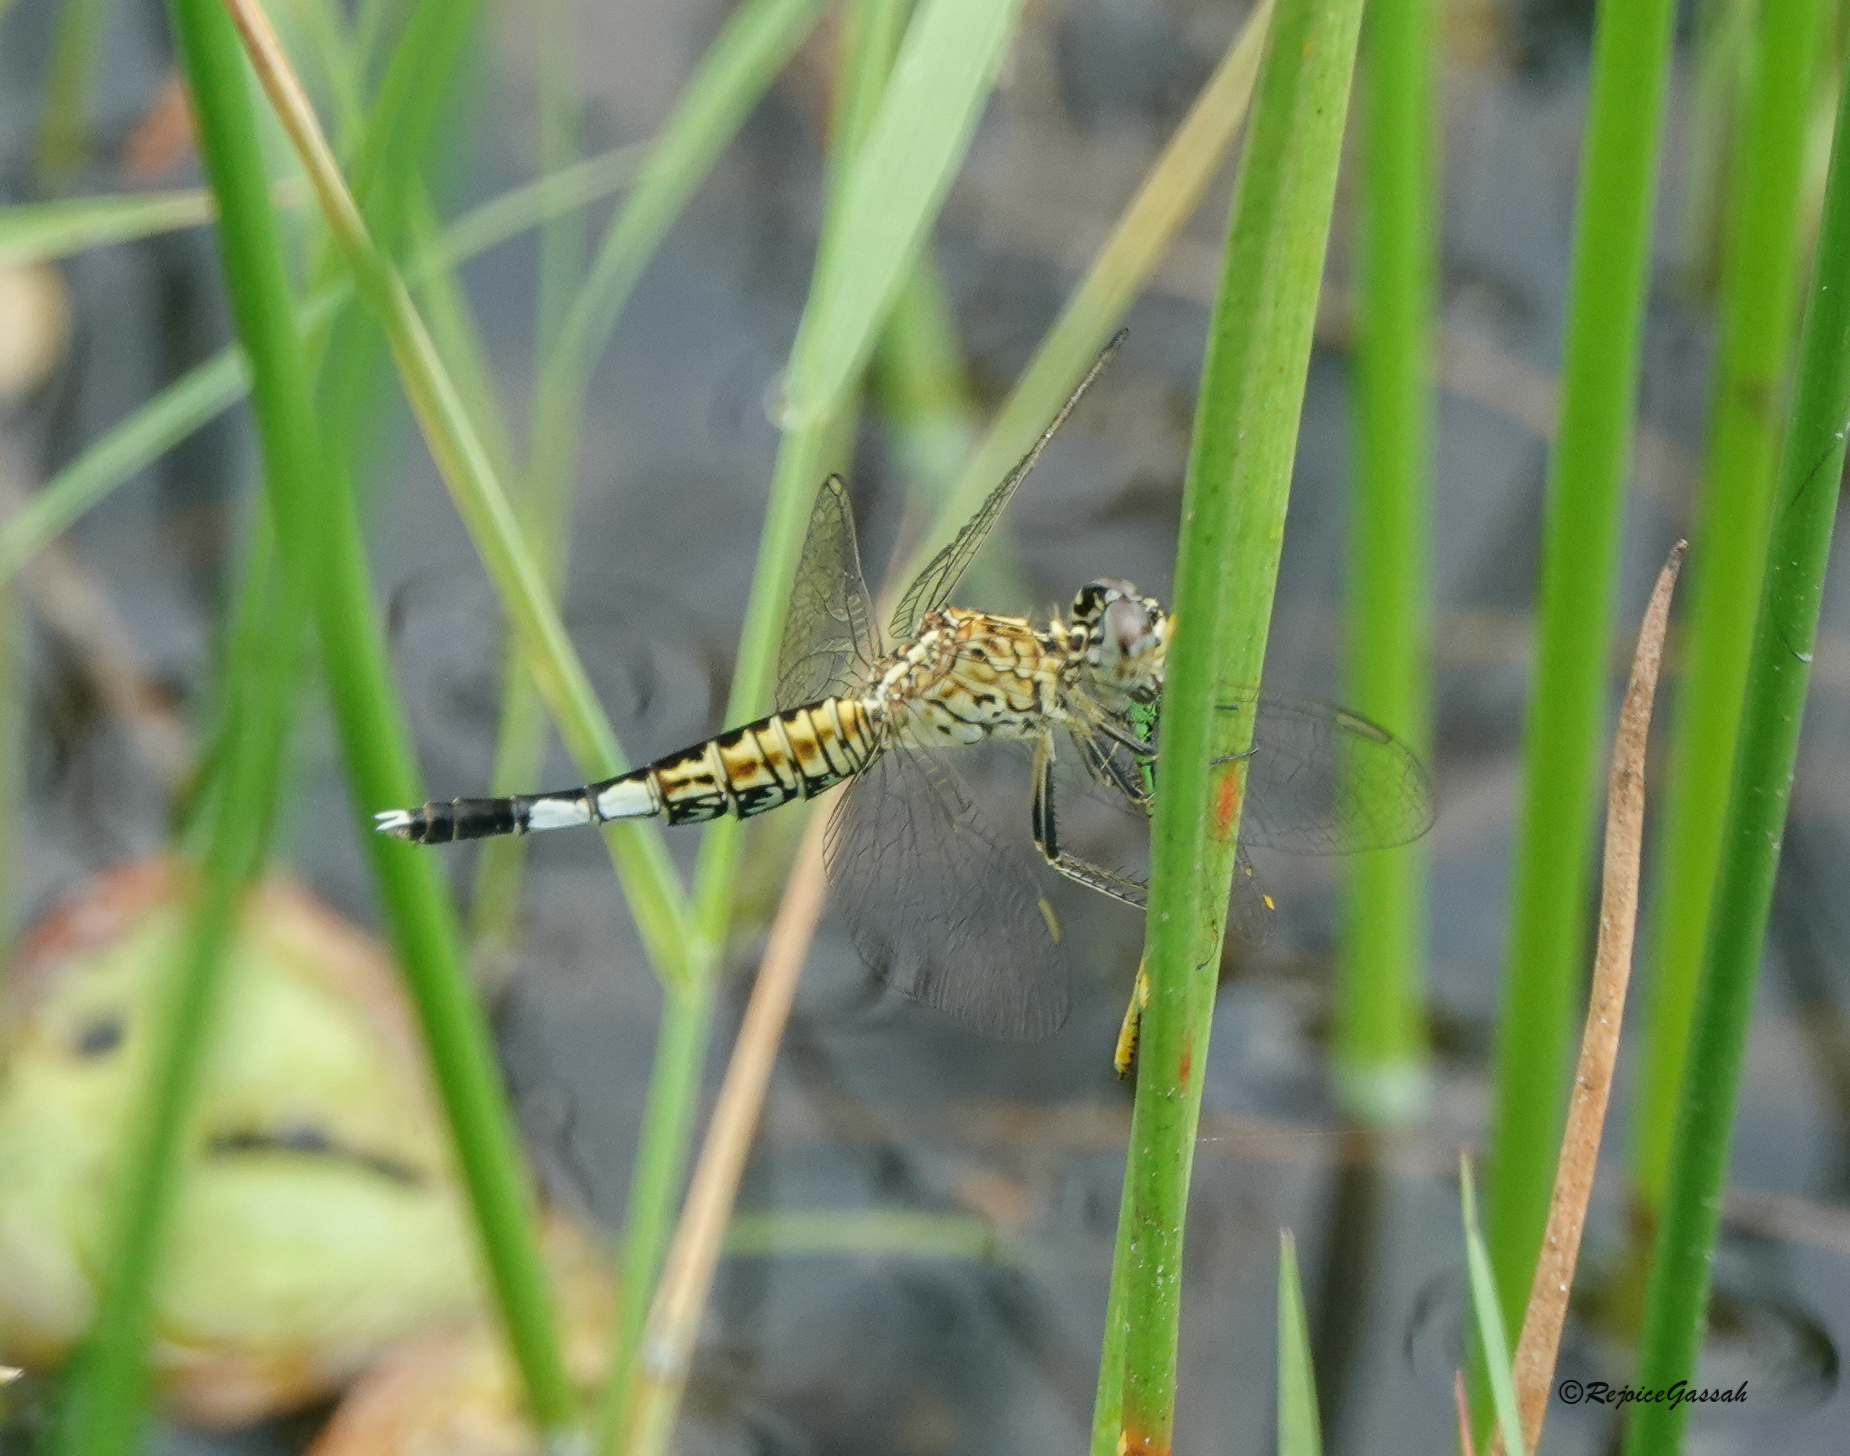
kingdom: Animalia
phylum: Arthropoda
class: Insecta
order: Odonata
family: Libellulidae
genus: Acisoma
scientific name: Acisoma panorpoides
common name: Asian pintail
